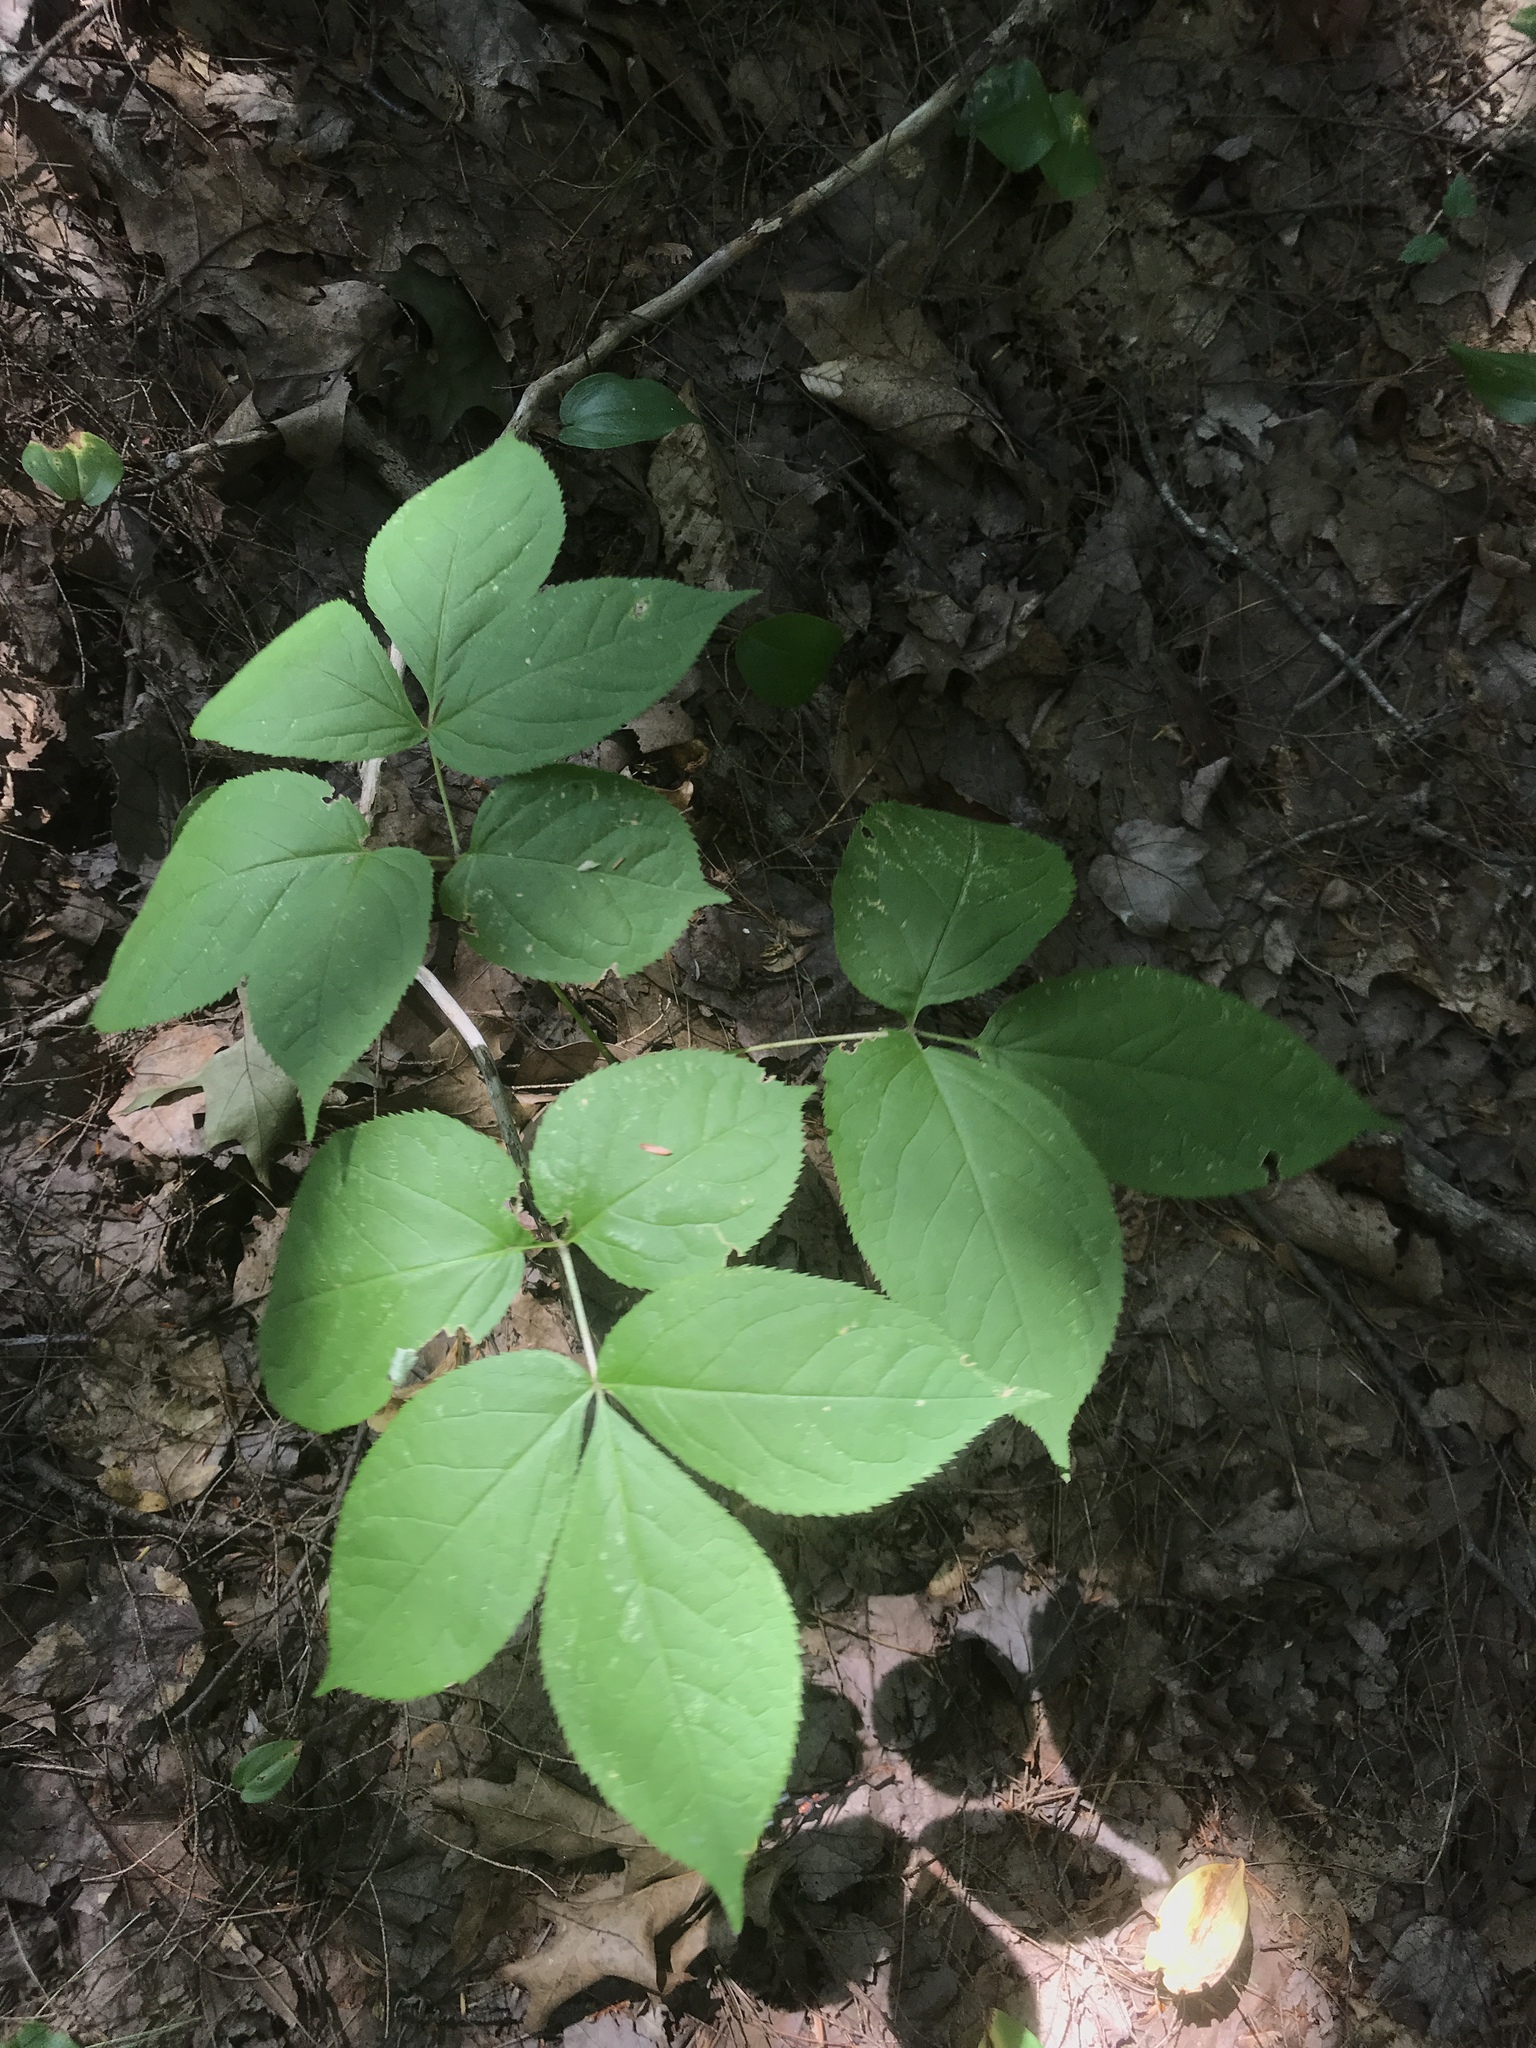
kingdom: Plantae
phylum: Tracheophyta
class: Magnoliopsida
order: Apiales
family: Araliaceae
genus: Aralia
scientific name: Aralia nudicaulis
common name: Wild sarsaparilla
